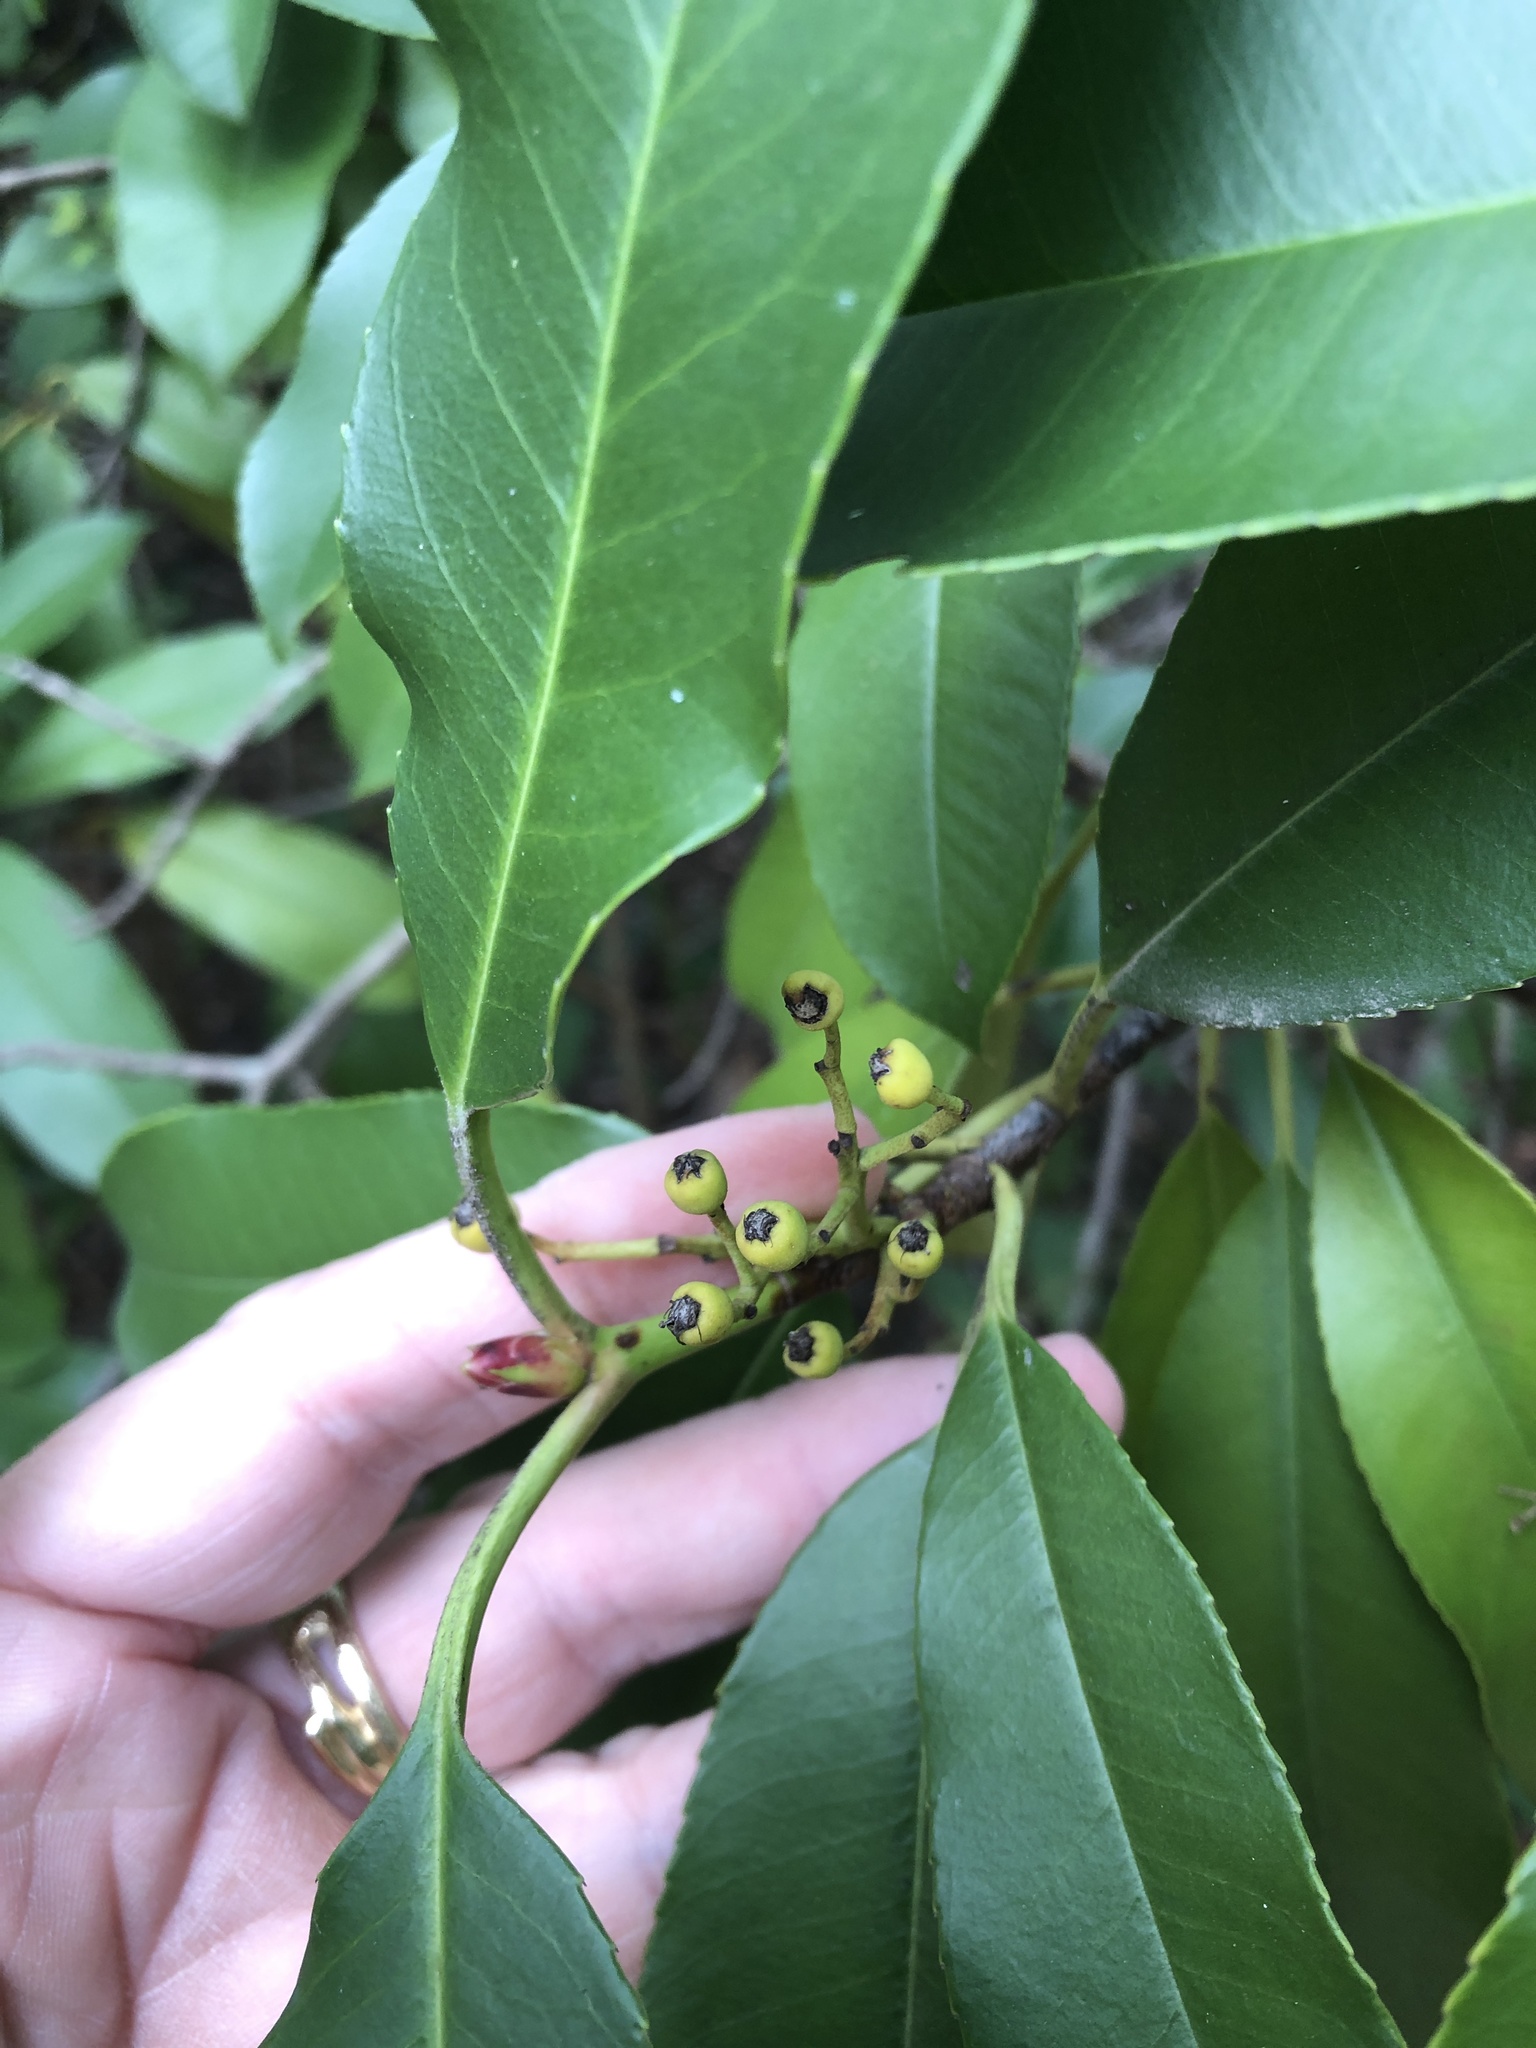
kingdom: Plantae
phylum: Tracheophyta
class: Magnoliopsida
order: Rosales
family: Rosaceae
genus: Photinia
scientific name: Photinia serratifolia
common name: Taiwanese photinia
